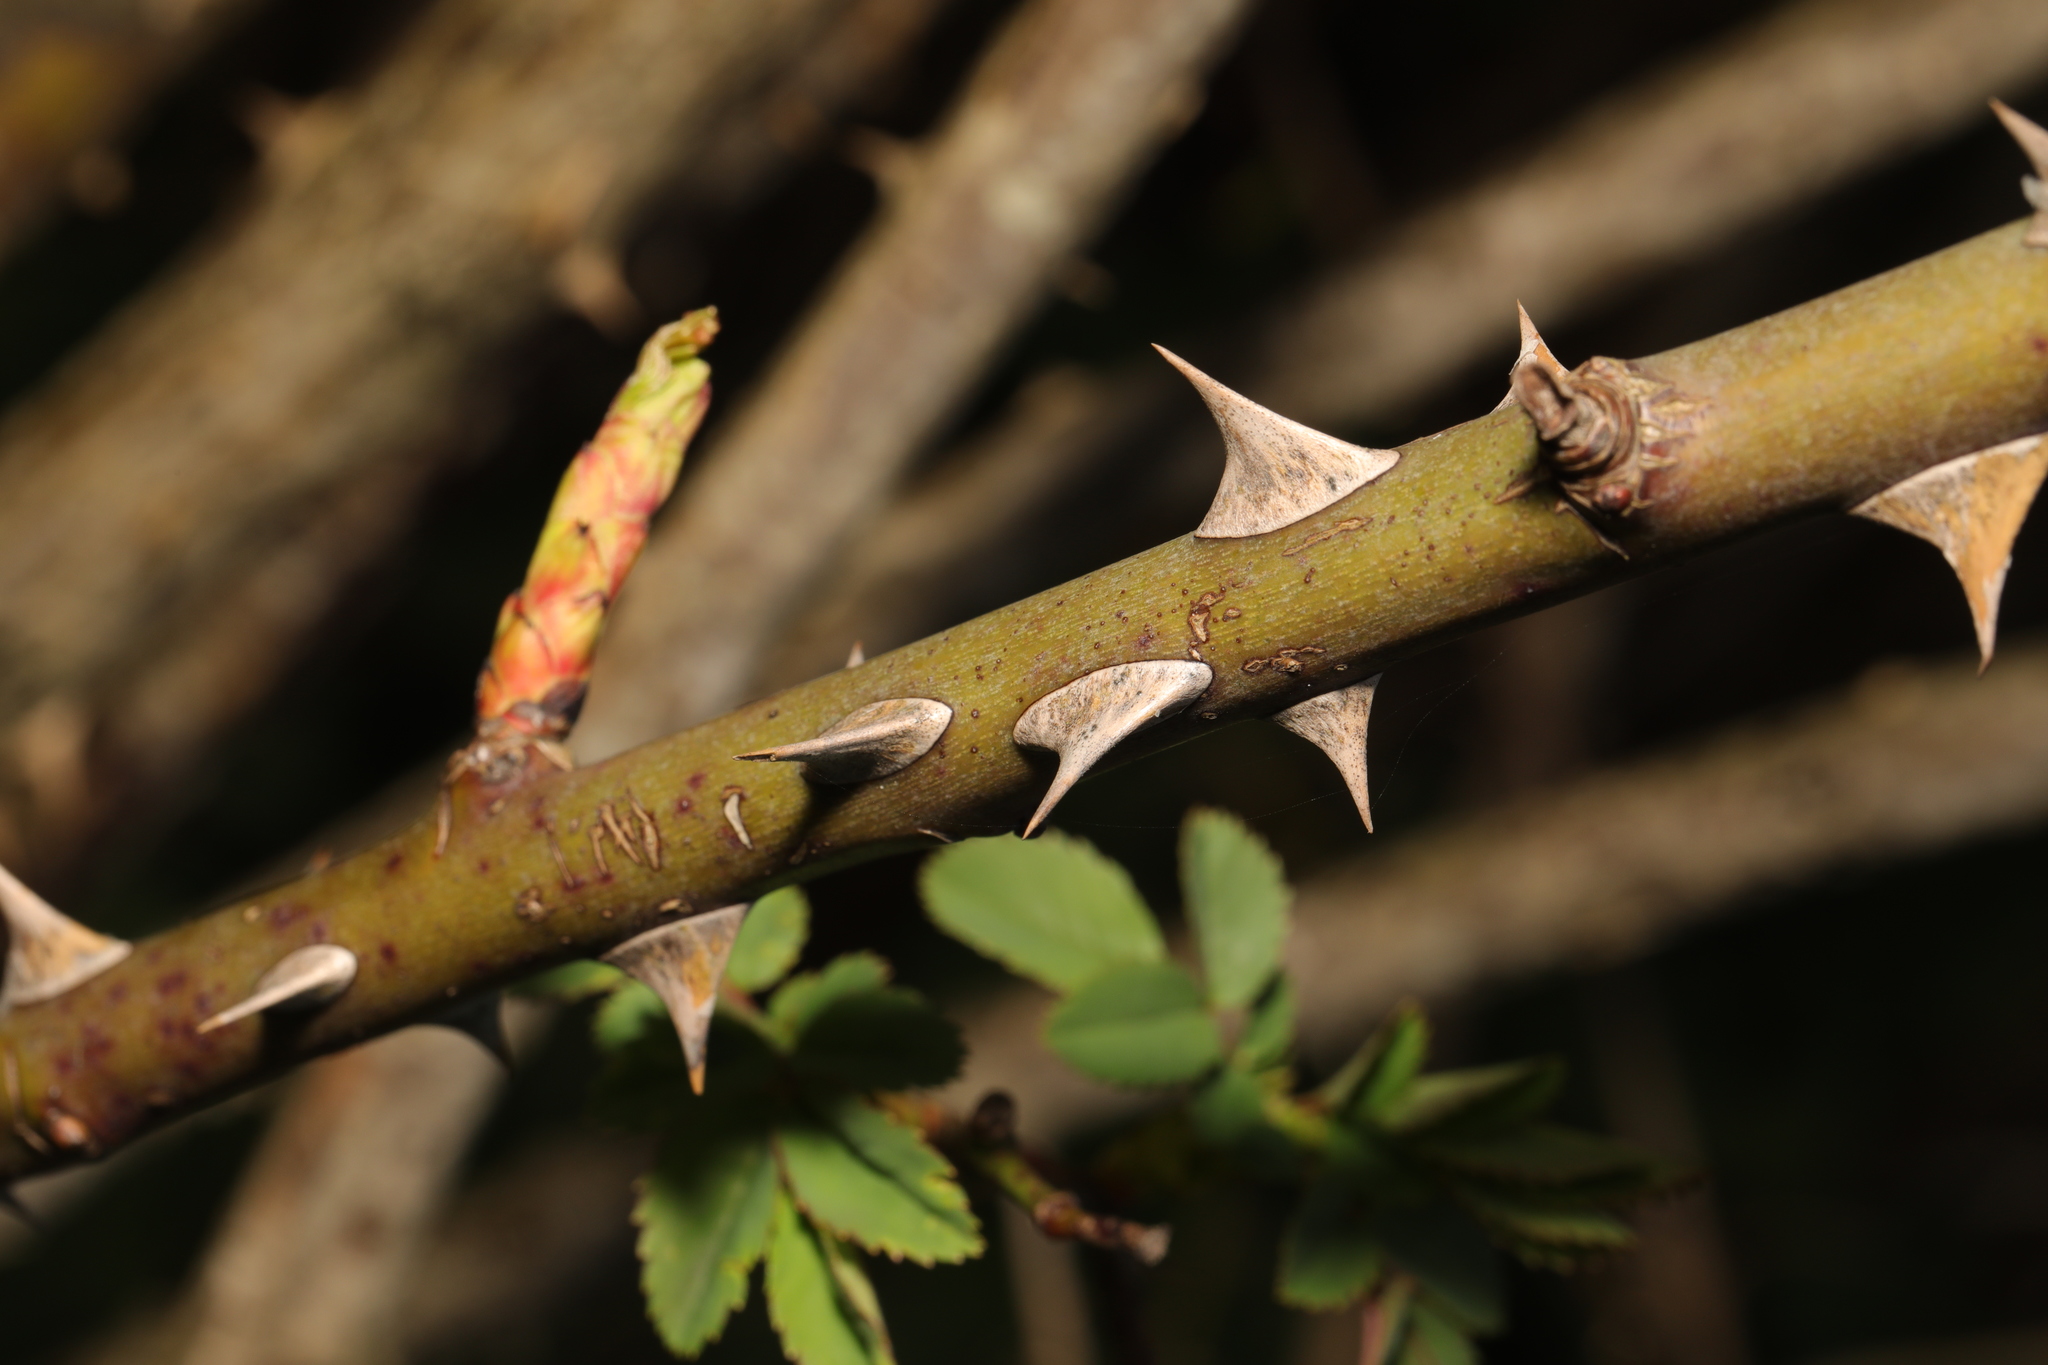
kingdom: Plantae
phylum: Tracheophyta
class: Magnoliopsida
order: Rosales
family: Rosaceae
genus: Rosa
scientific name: Rosa canina
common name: Dog rose
